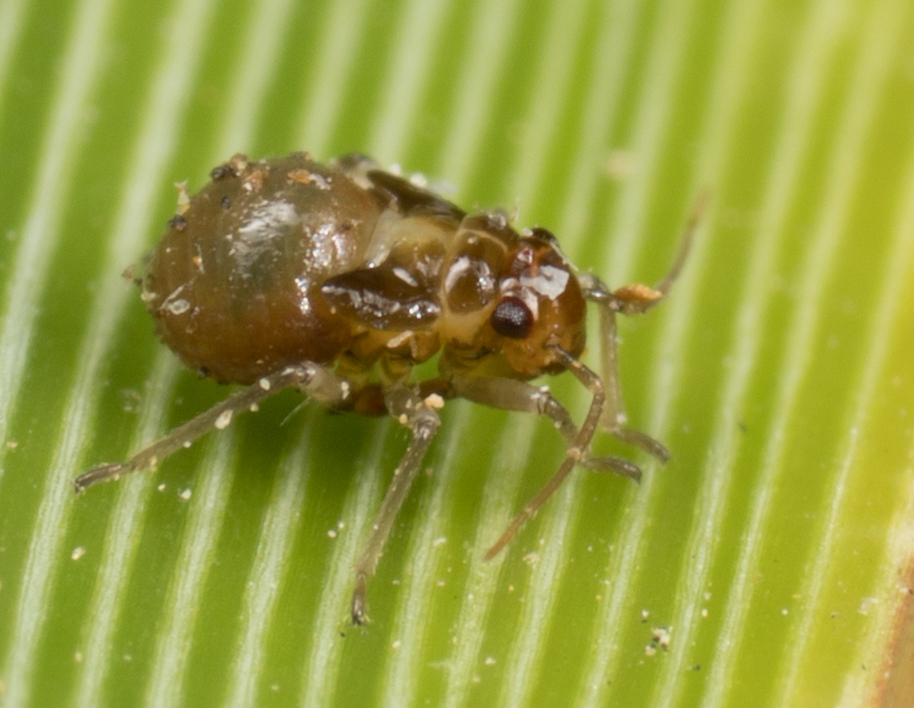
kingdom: Animalia
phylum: Arthropoda
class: Insecta
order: Hemiptera
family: Miridae
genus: Halticotoma
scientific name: Halticotoma valida
